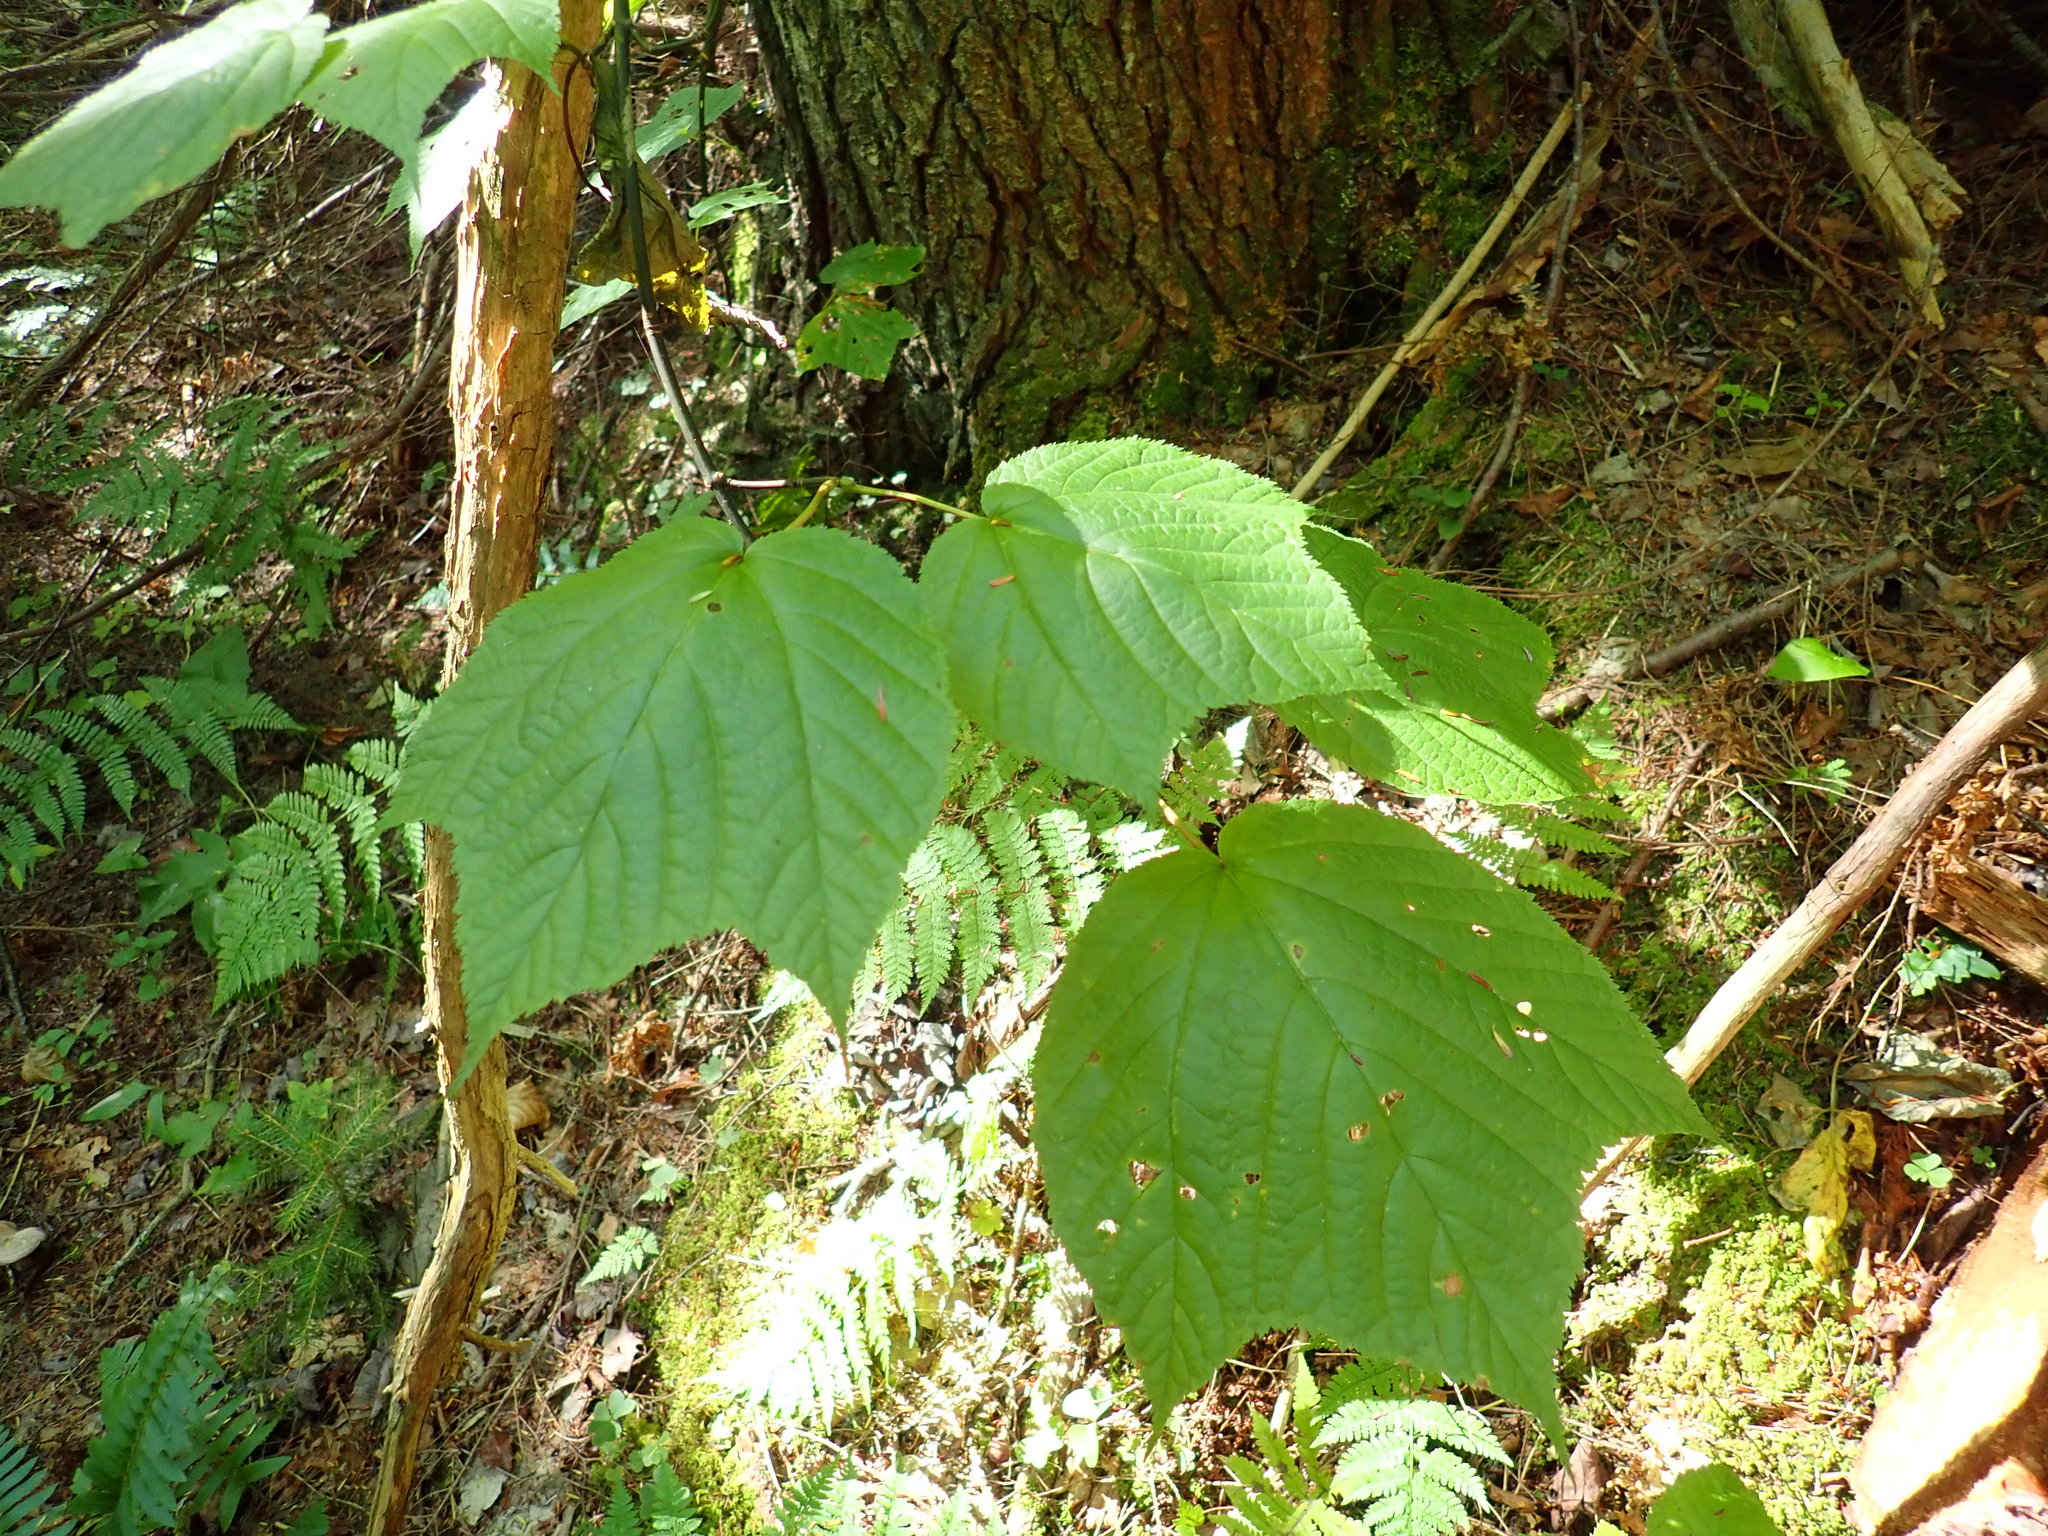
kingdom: Plantae
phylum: Tracheophyta
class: Magnoliopsida
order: Sapindales
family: Sapindaceae
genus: Acer
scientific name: Acer pensylvanicum
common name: Moosewood
